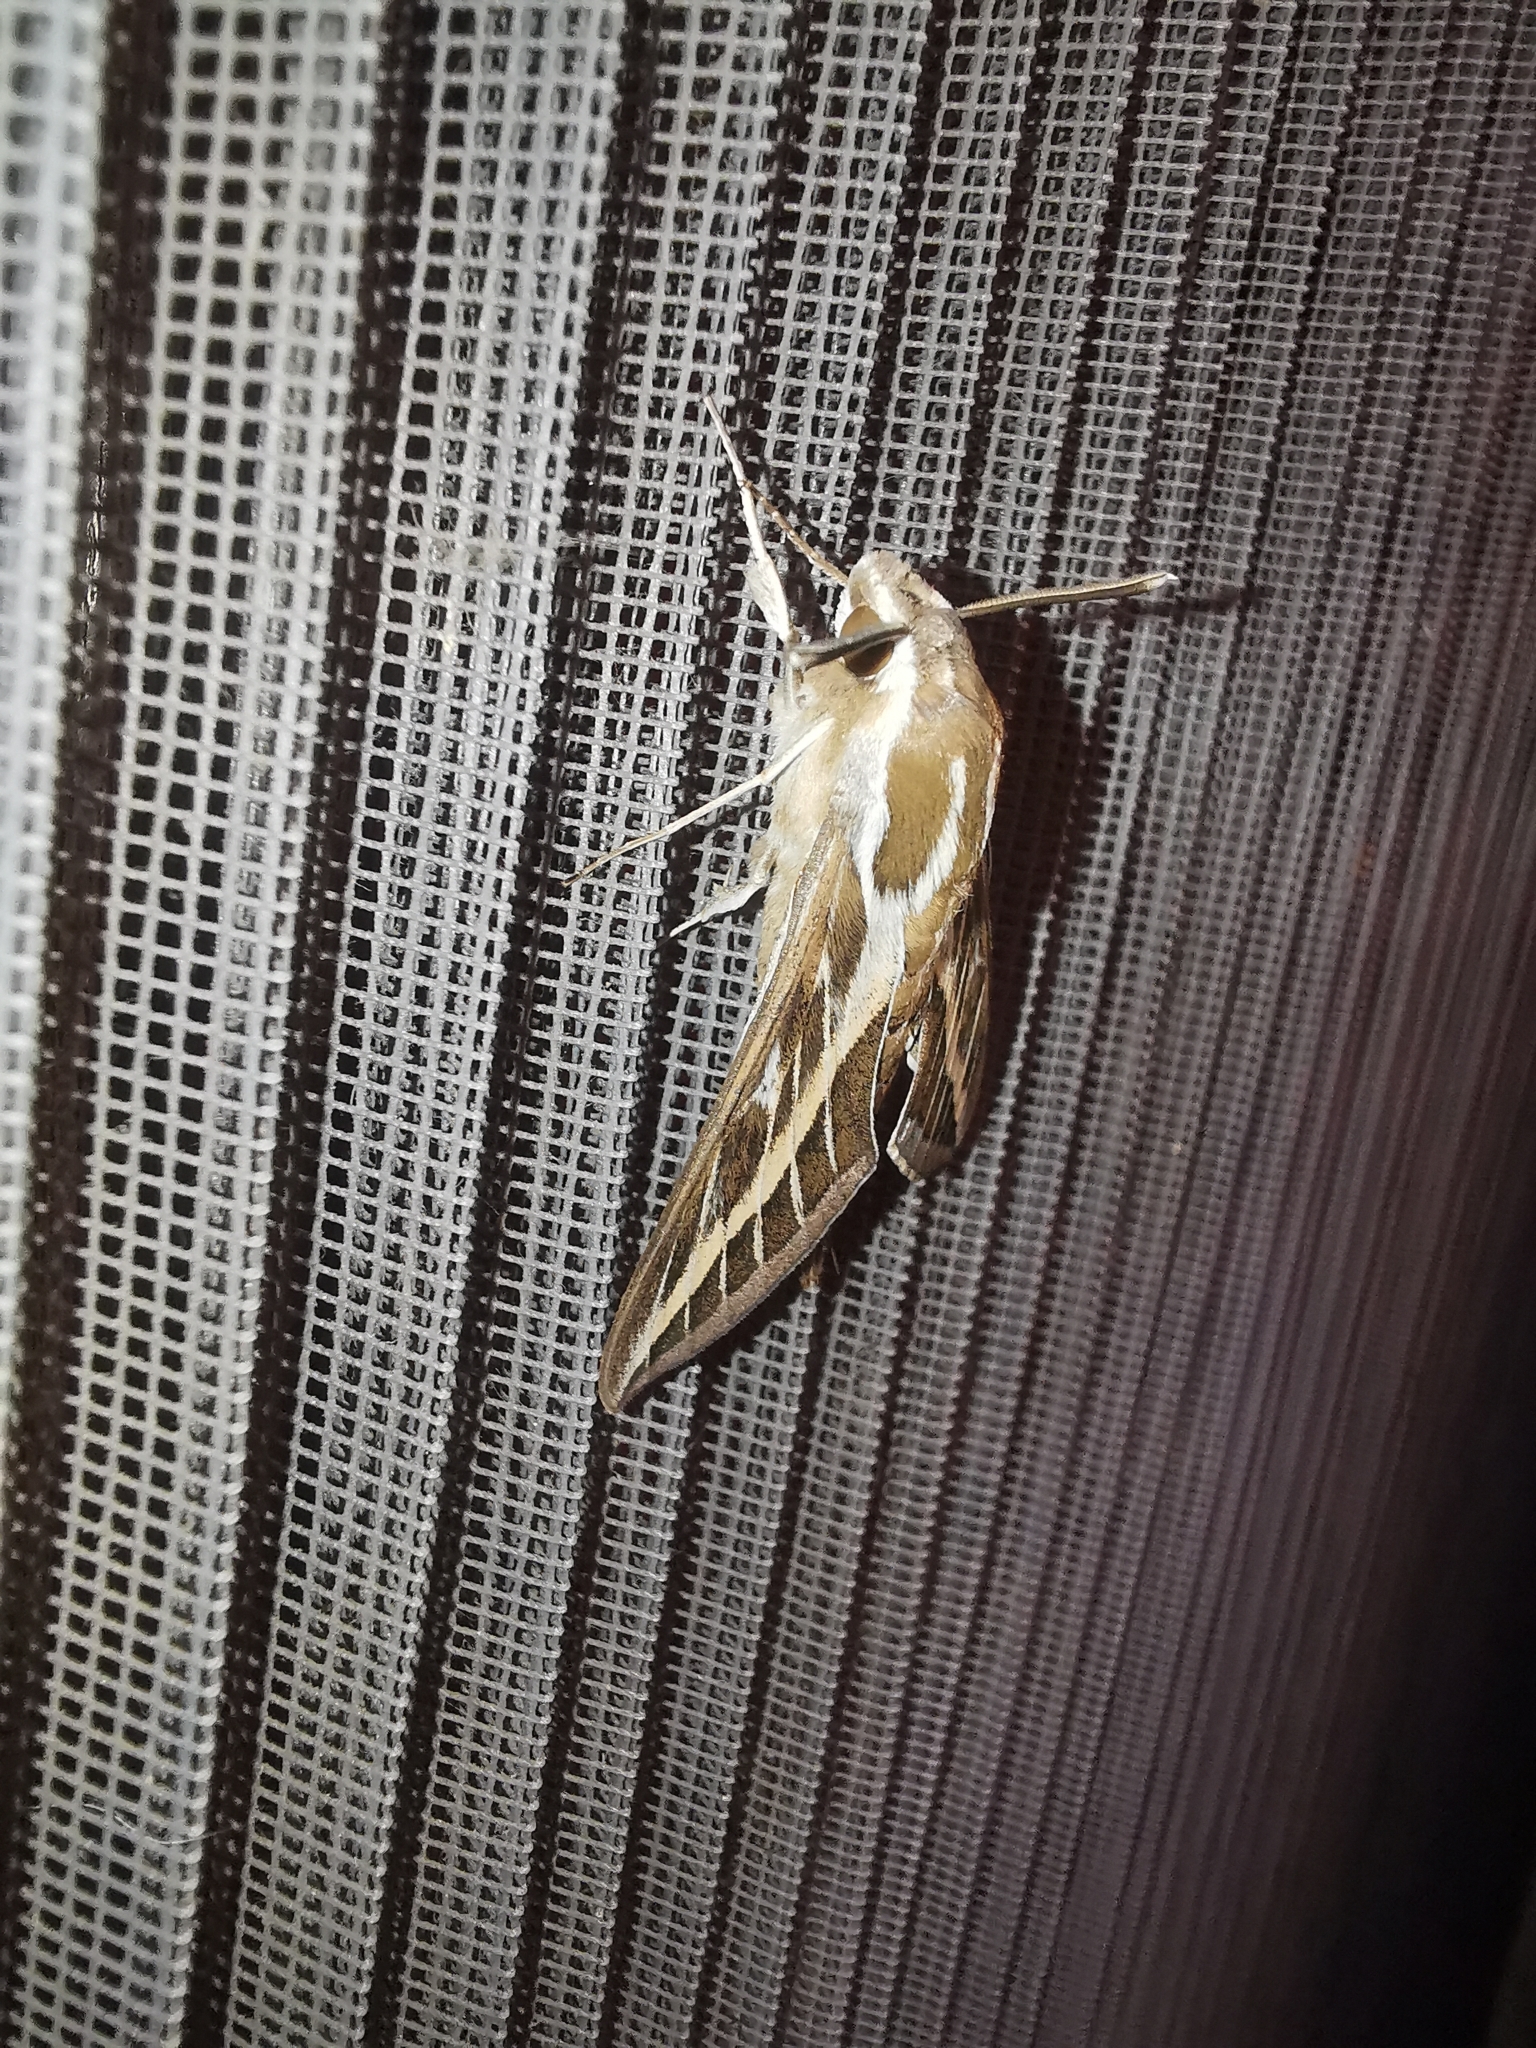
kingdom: Animalia
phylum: Arthropoda
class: Insecta
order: Lepidoptera
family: Sphingidae
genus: Hyles
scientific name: Hyles livornica
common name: Striped hawk-moth
